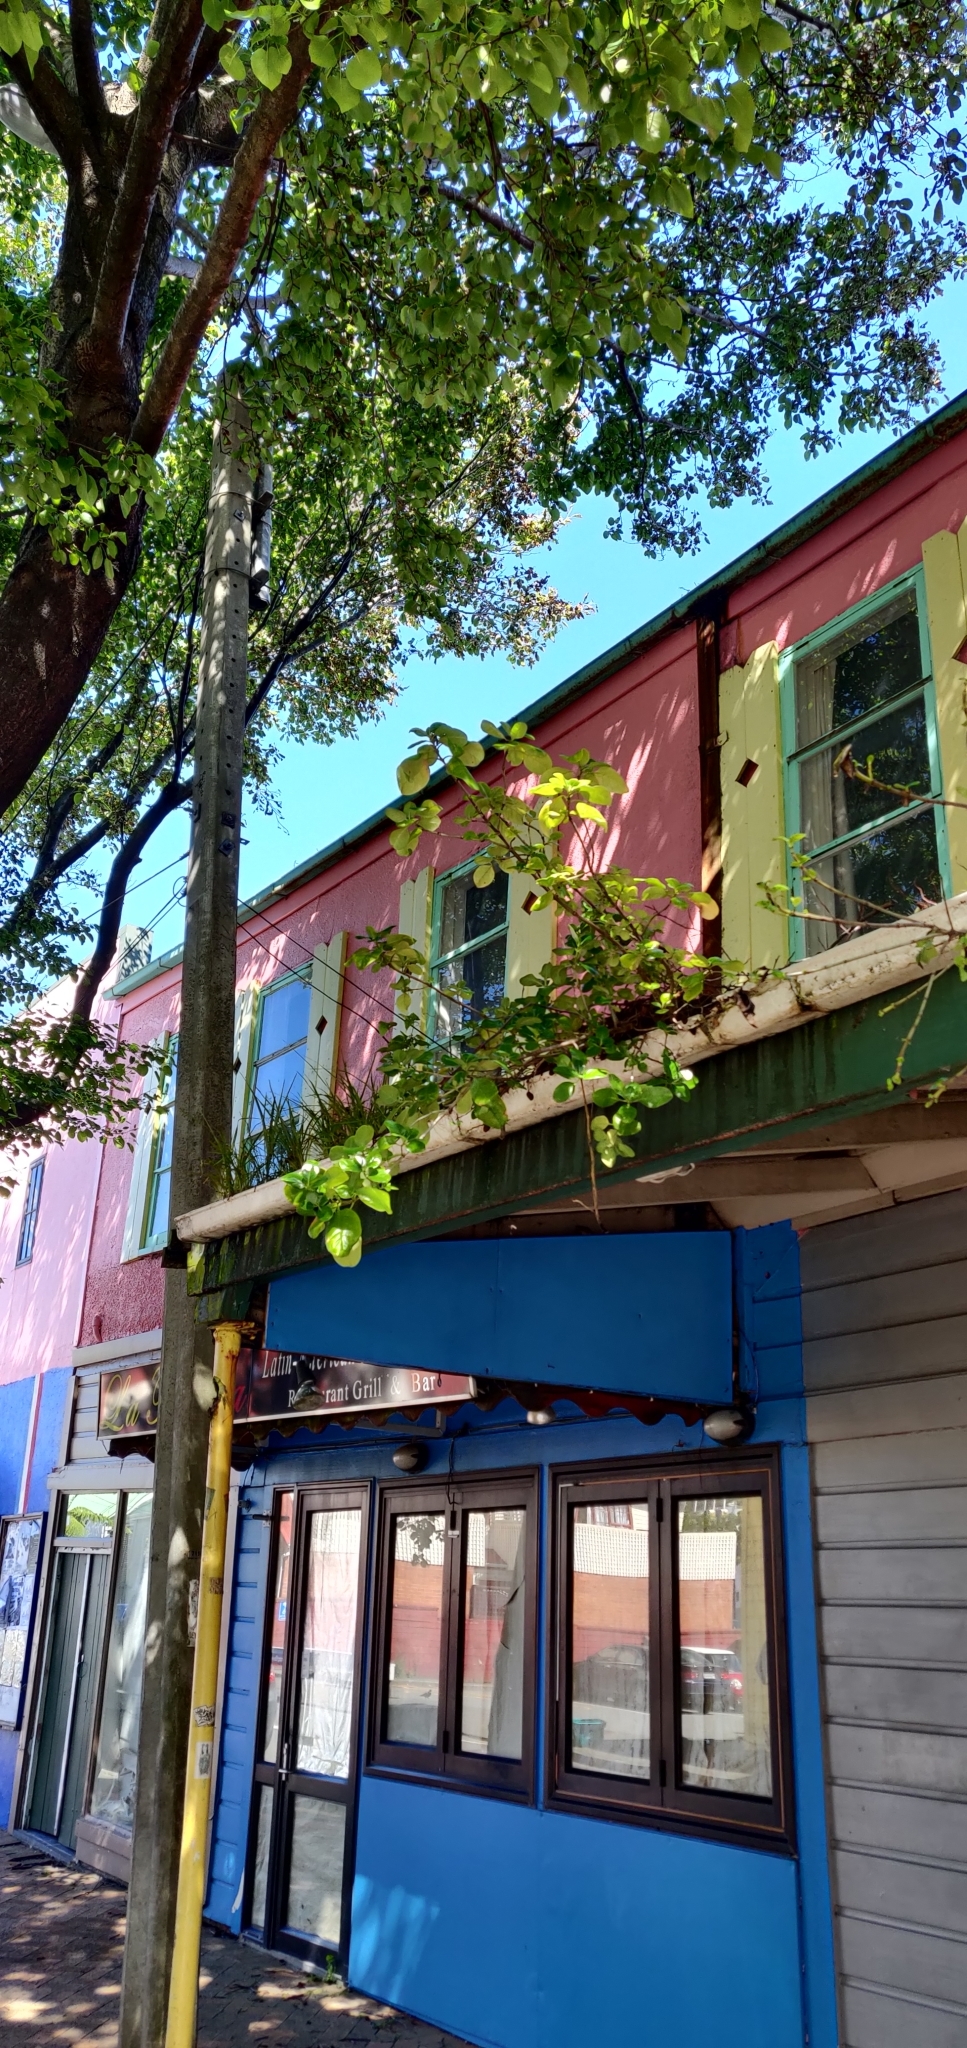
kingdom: Plantae
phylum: Tracheophyta
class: Magnoliopsida
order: Gentianales
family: Rubiaceae
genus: Coprosma
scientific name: Coprosma repens
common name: Tree bedstraw
